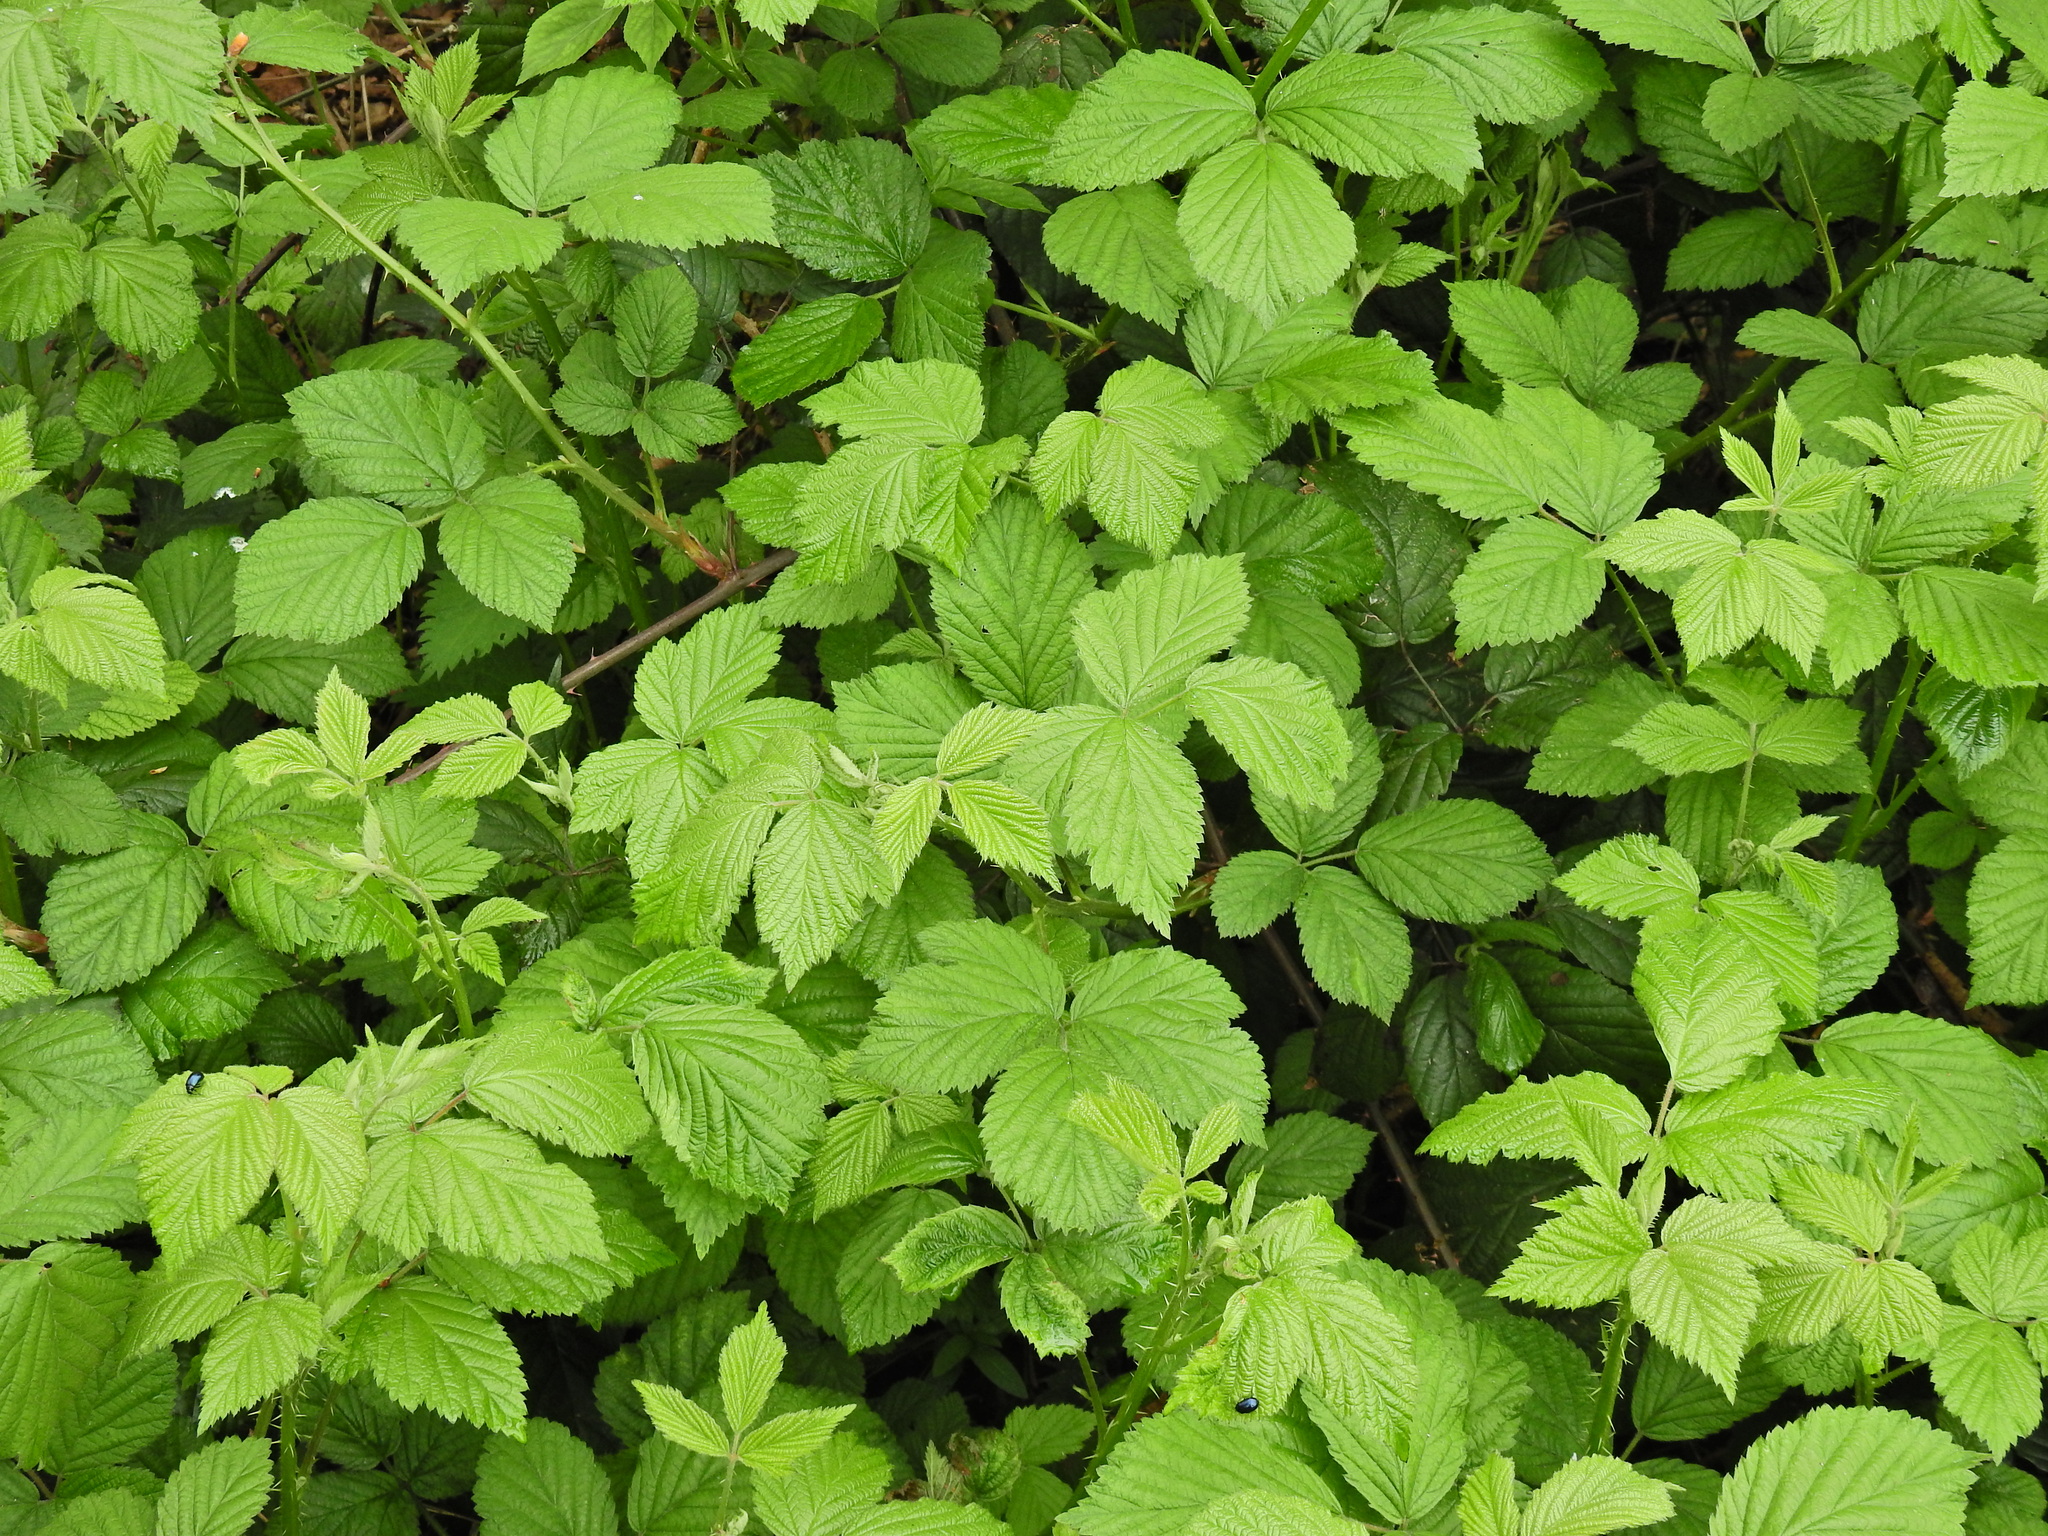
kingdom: Plantae
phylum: Tracheophyta
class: Magnoliopsida
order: Rosales
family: Rosaceae
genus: Rubus
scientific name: Rubus fruticosus
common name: Blackberry, bramble
